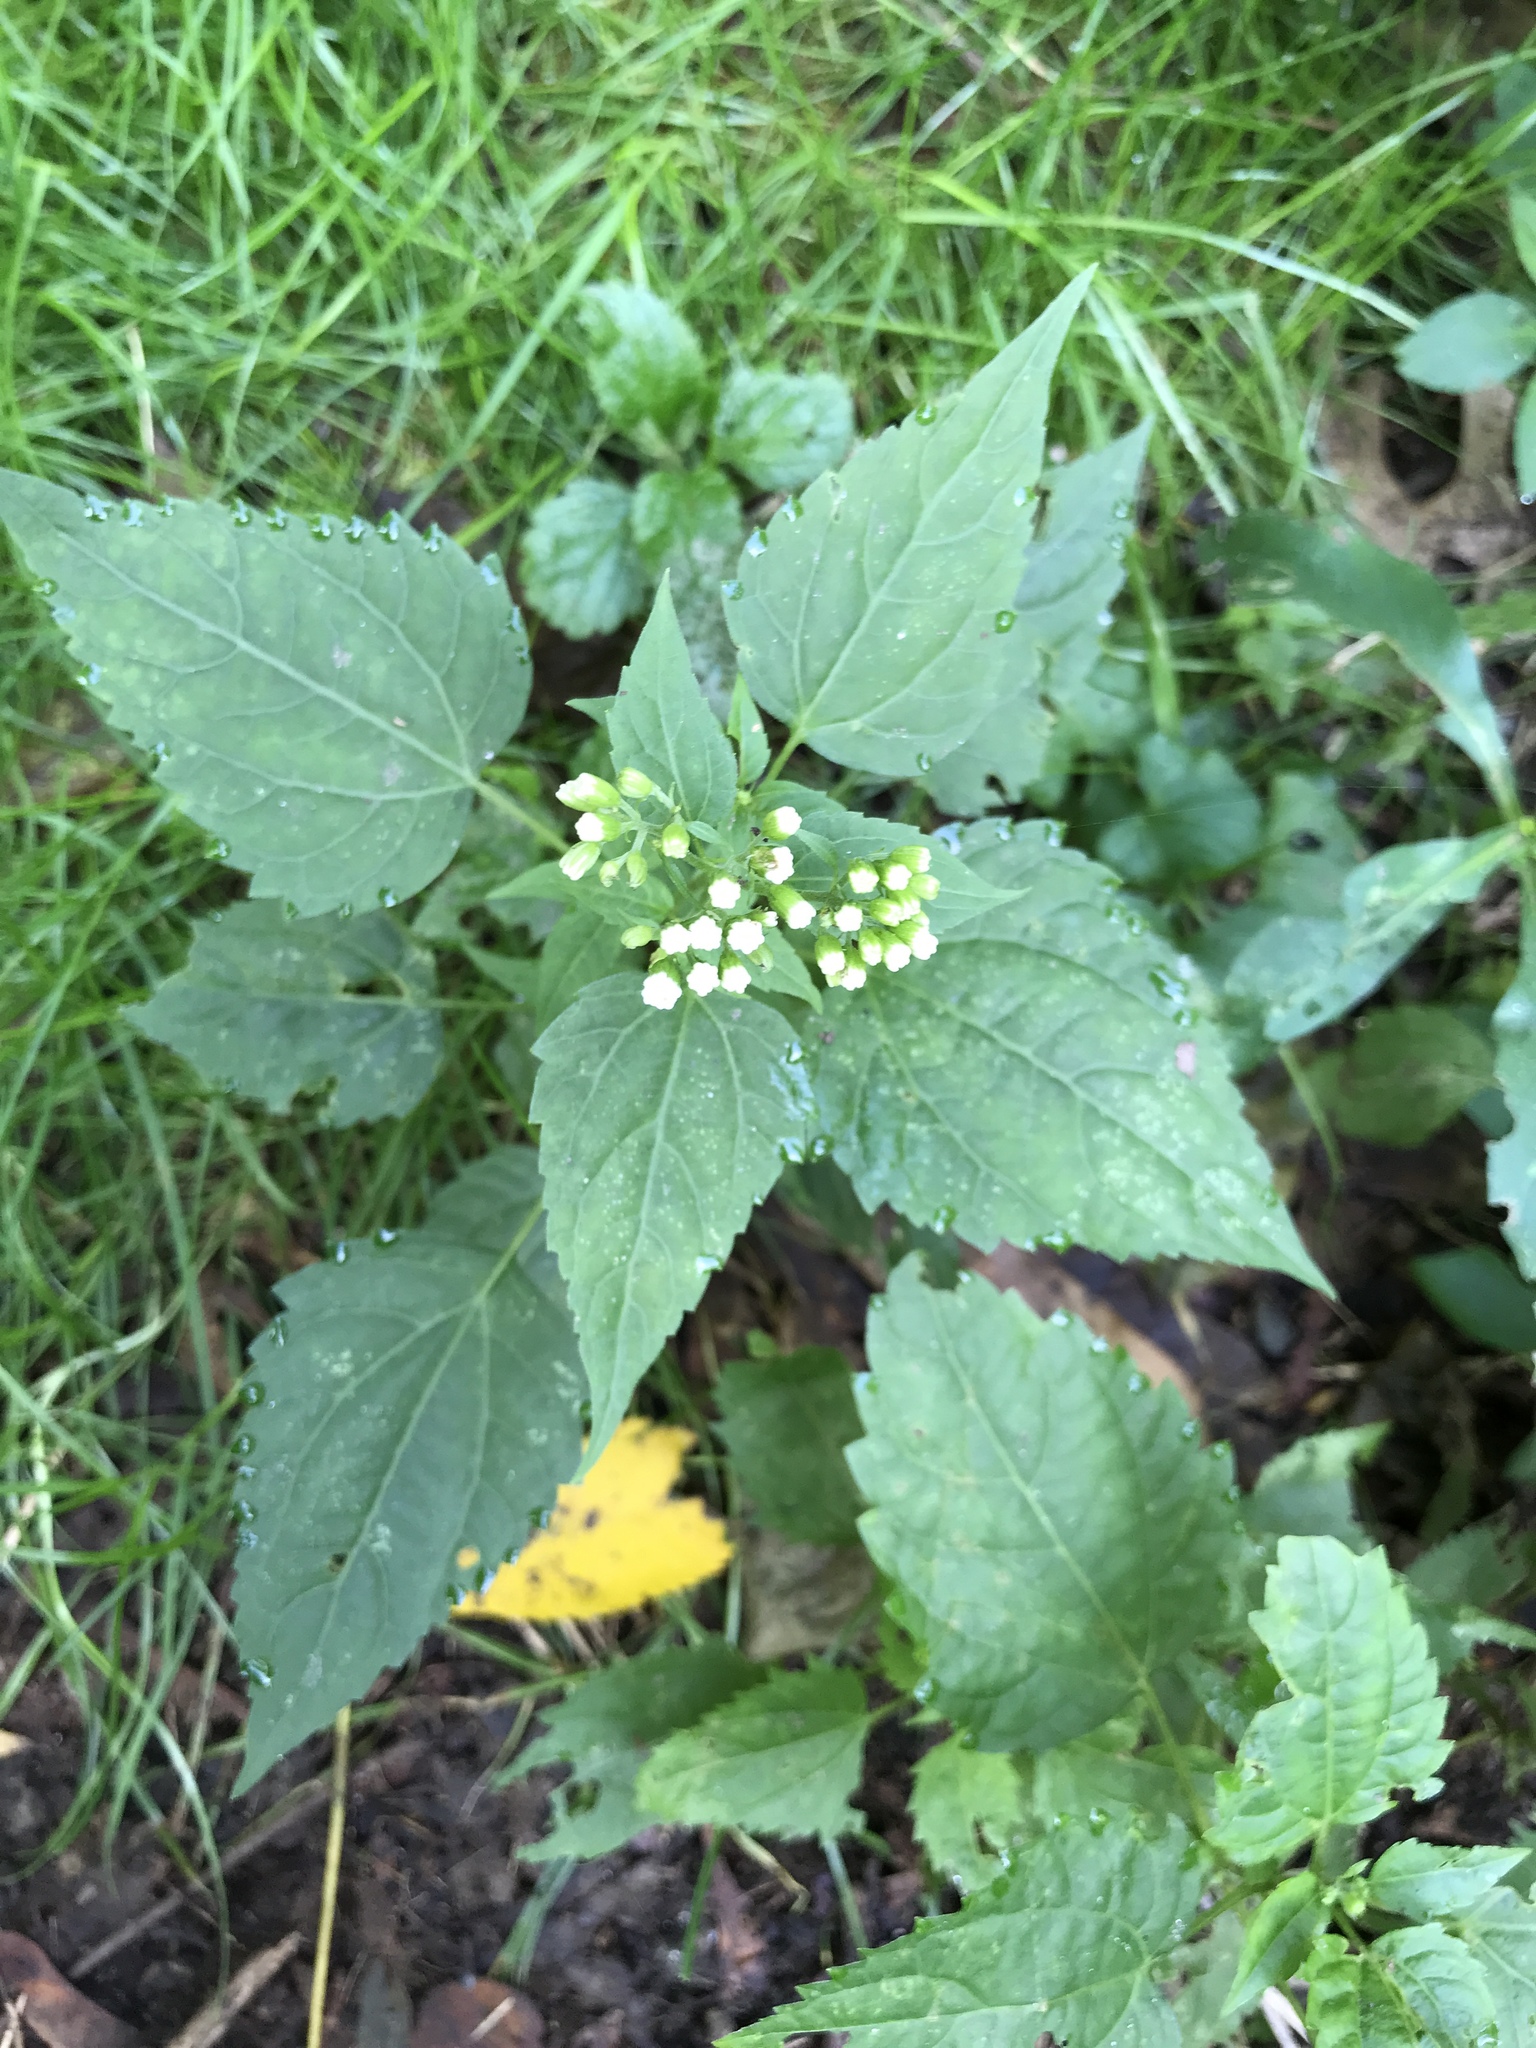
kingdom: Plantae
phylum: Tracheophyta
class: Magnoliopsida
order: Asterales
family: Asteraceae
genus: Ageratina
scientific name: Ageratina altissima
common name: White snakeroot
